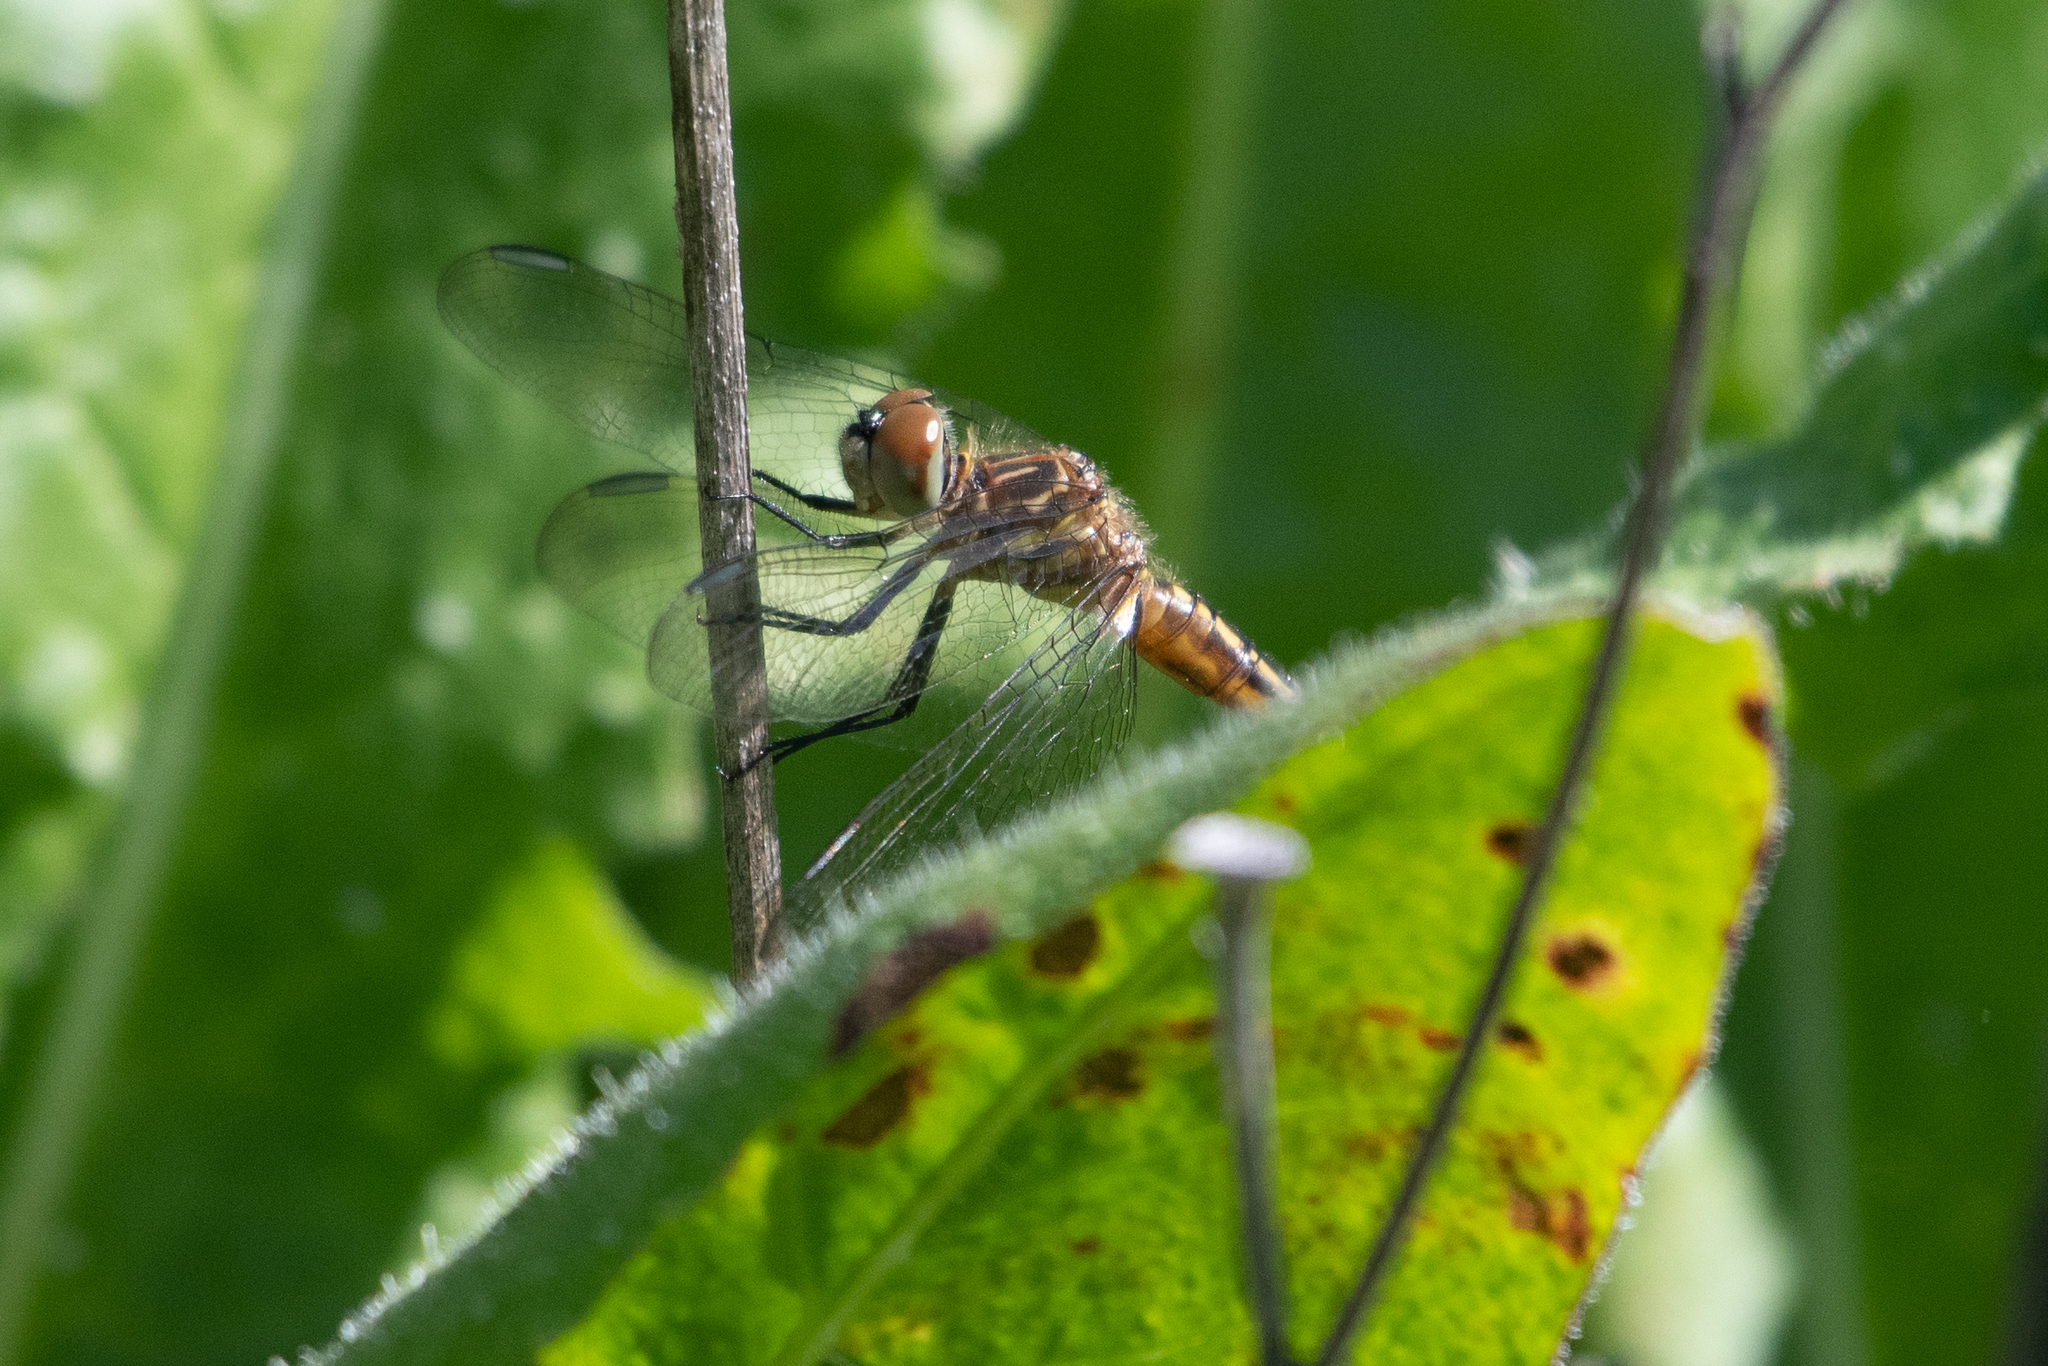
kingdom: Animalia
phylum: Arthropoda
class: Insecta
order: Odonata
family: Libellulidae
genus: Pachydiplax
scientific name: Pachydiplax longipennis
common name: Blue dasher
